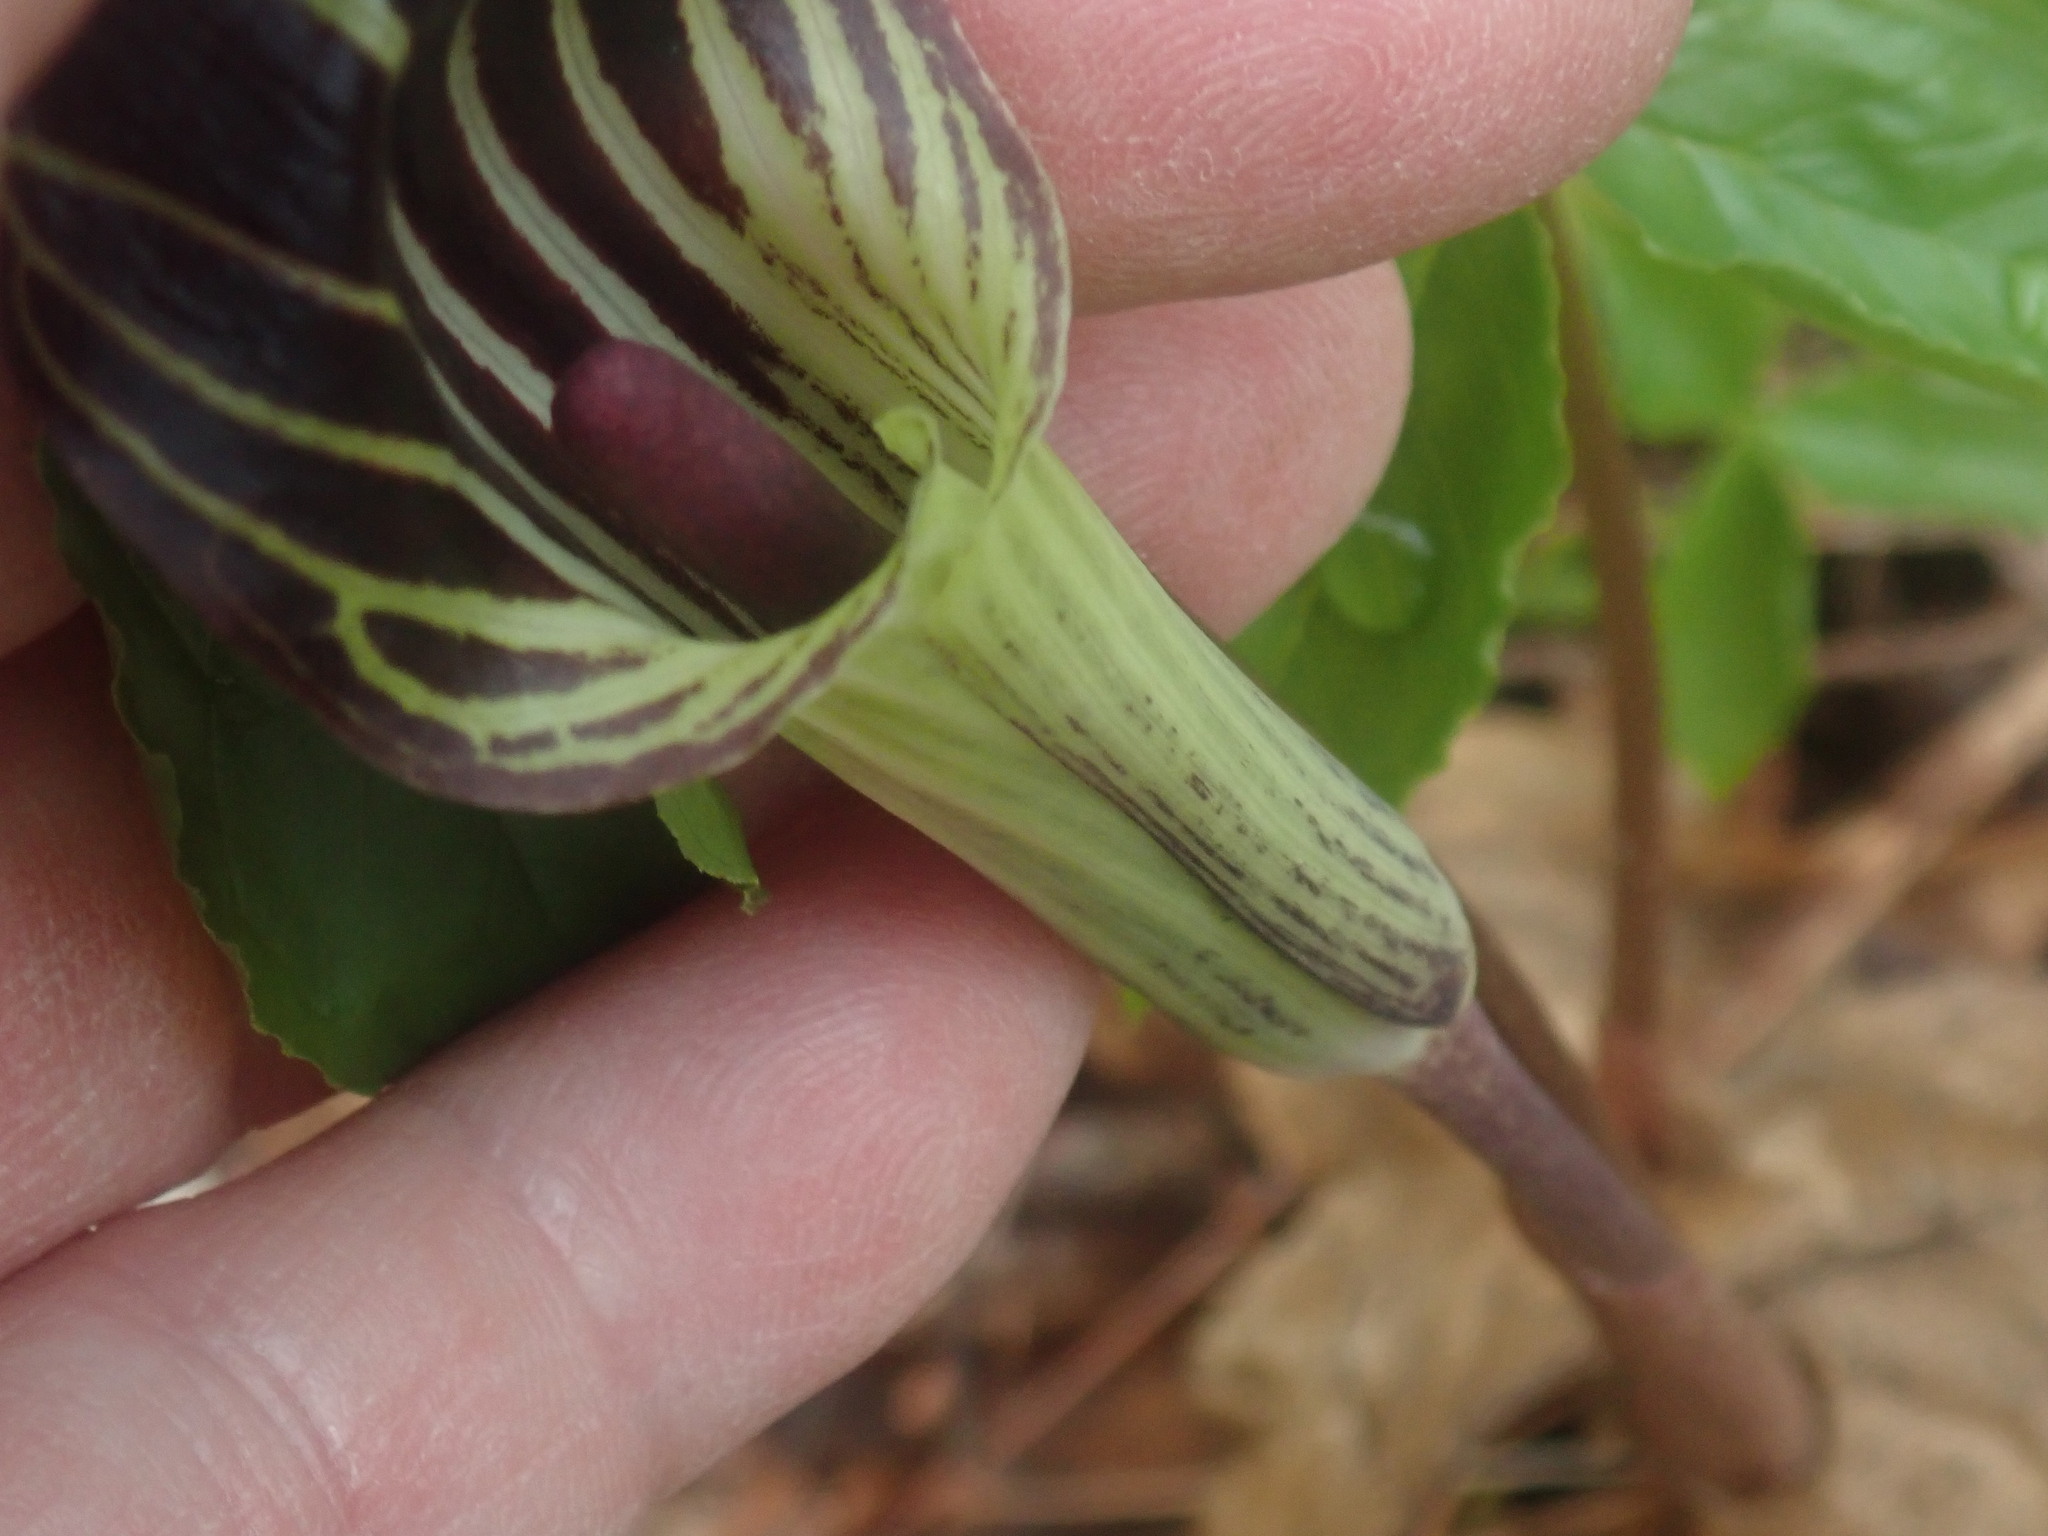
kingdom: Plantae
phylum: Tracheophyta
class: Liliopsida
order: Alismatales
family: Araceae
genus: Arisaema
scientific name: Arisaema triphyllum
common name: Jack-in-the-pulpit
